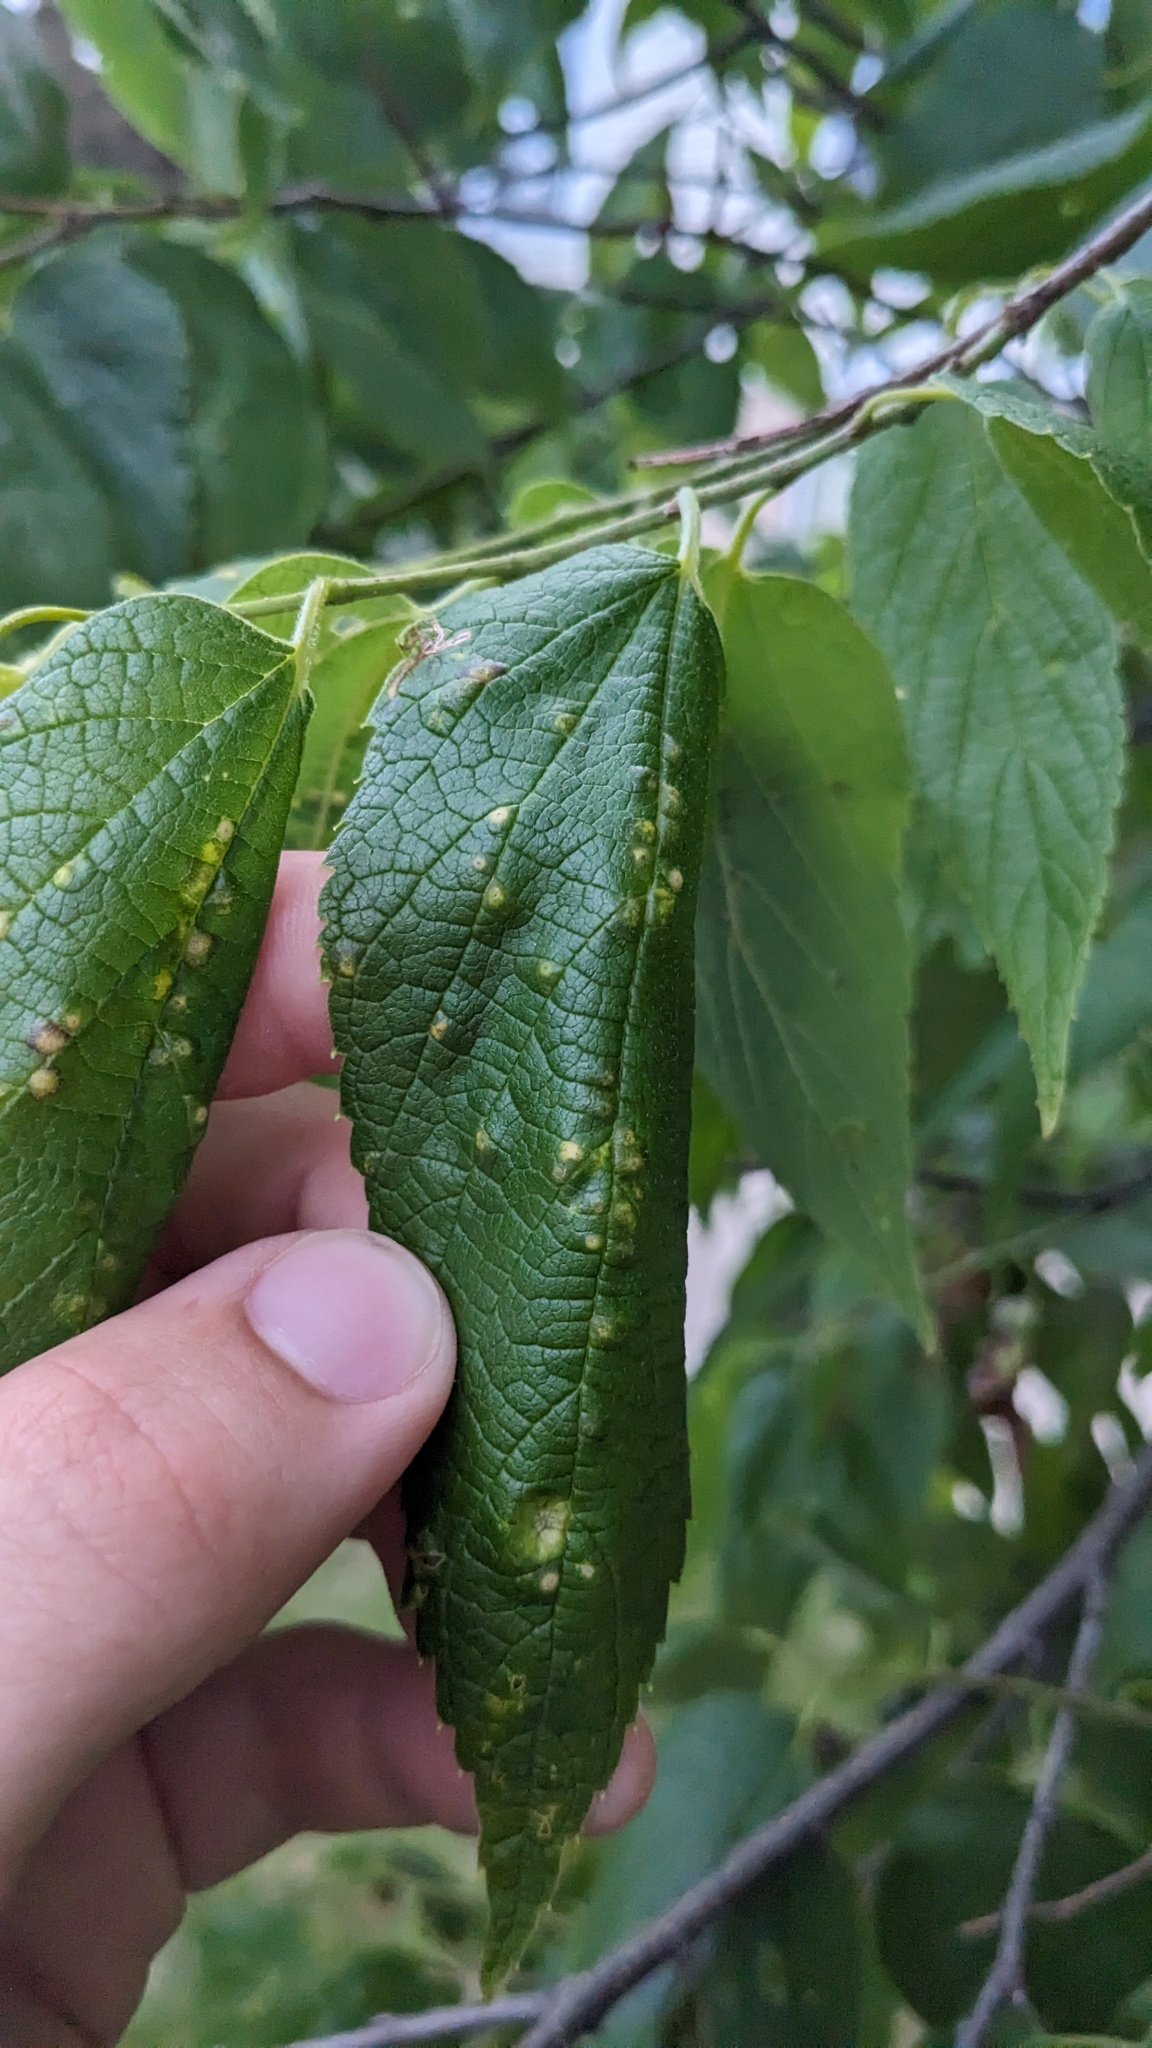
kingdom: Animalia
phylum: Arthropoda
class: Insecta
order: Hemiptera
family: Aphalaridae
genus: Pachypsylla
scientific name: Pachypsylla celtidisvesicula
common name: Hackberry blister gall psyllid
